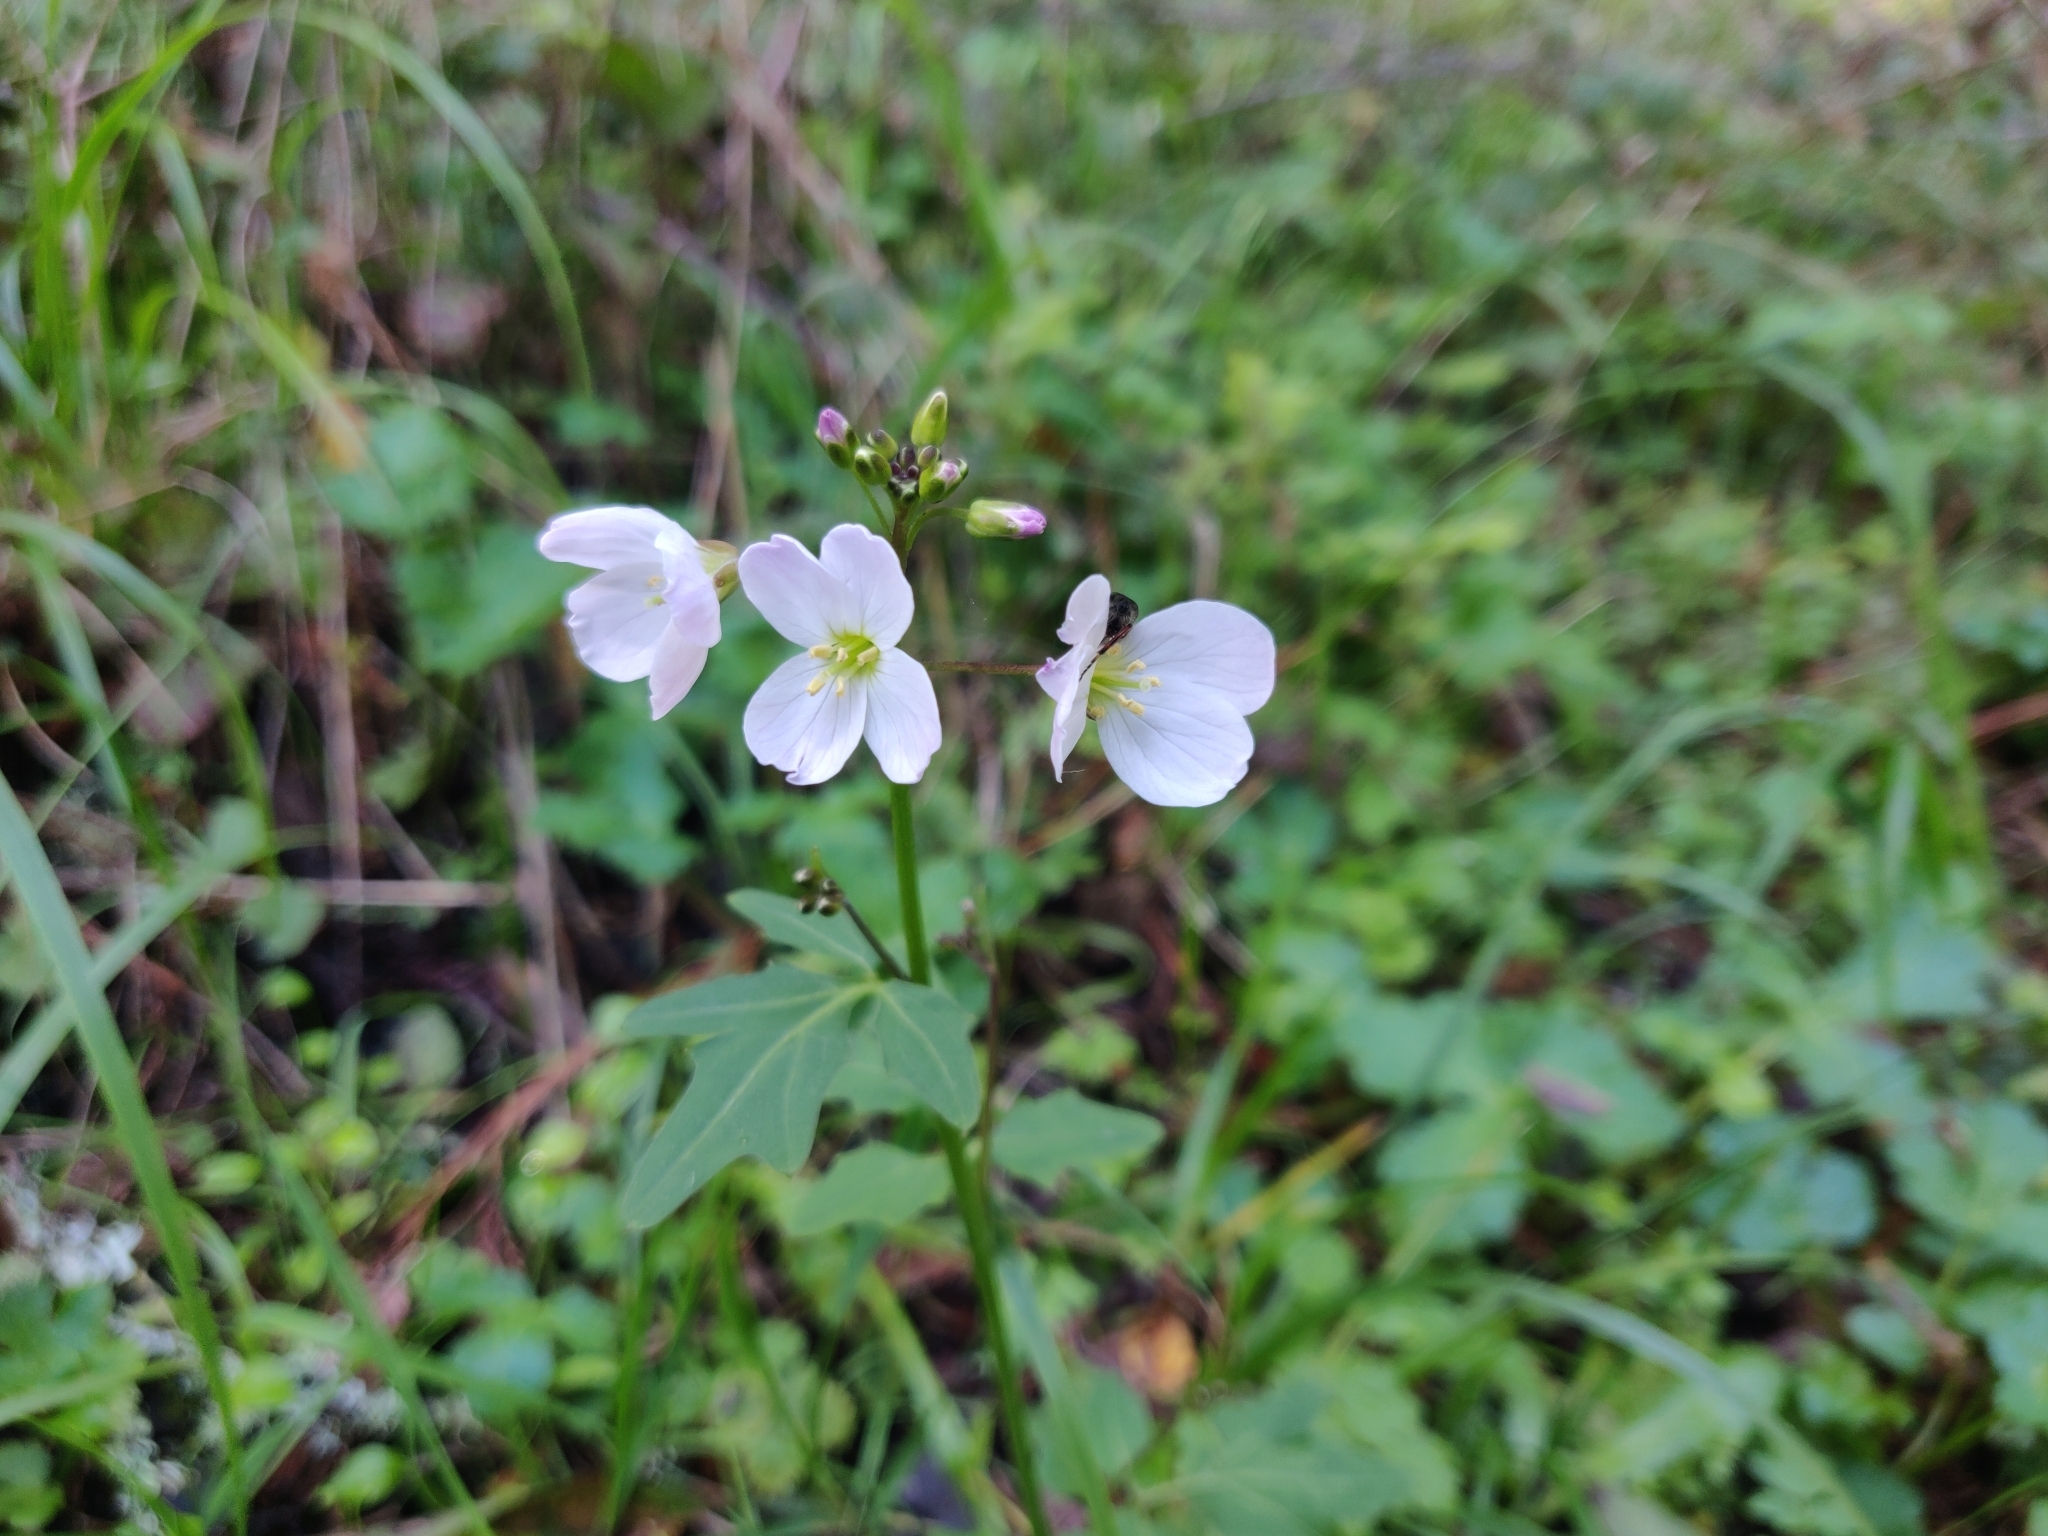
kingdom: Plantae
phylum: Tracheophyta
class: Magnoliopsida
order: Brassicales
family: Brassicaceae
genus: Cardamine
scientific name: Cardamine californica
